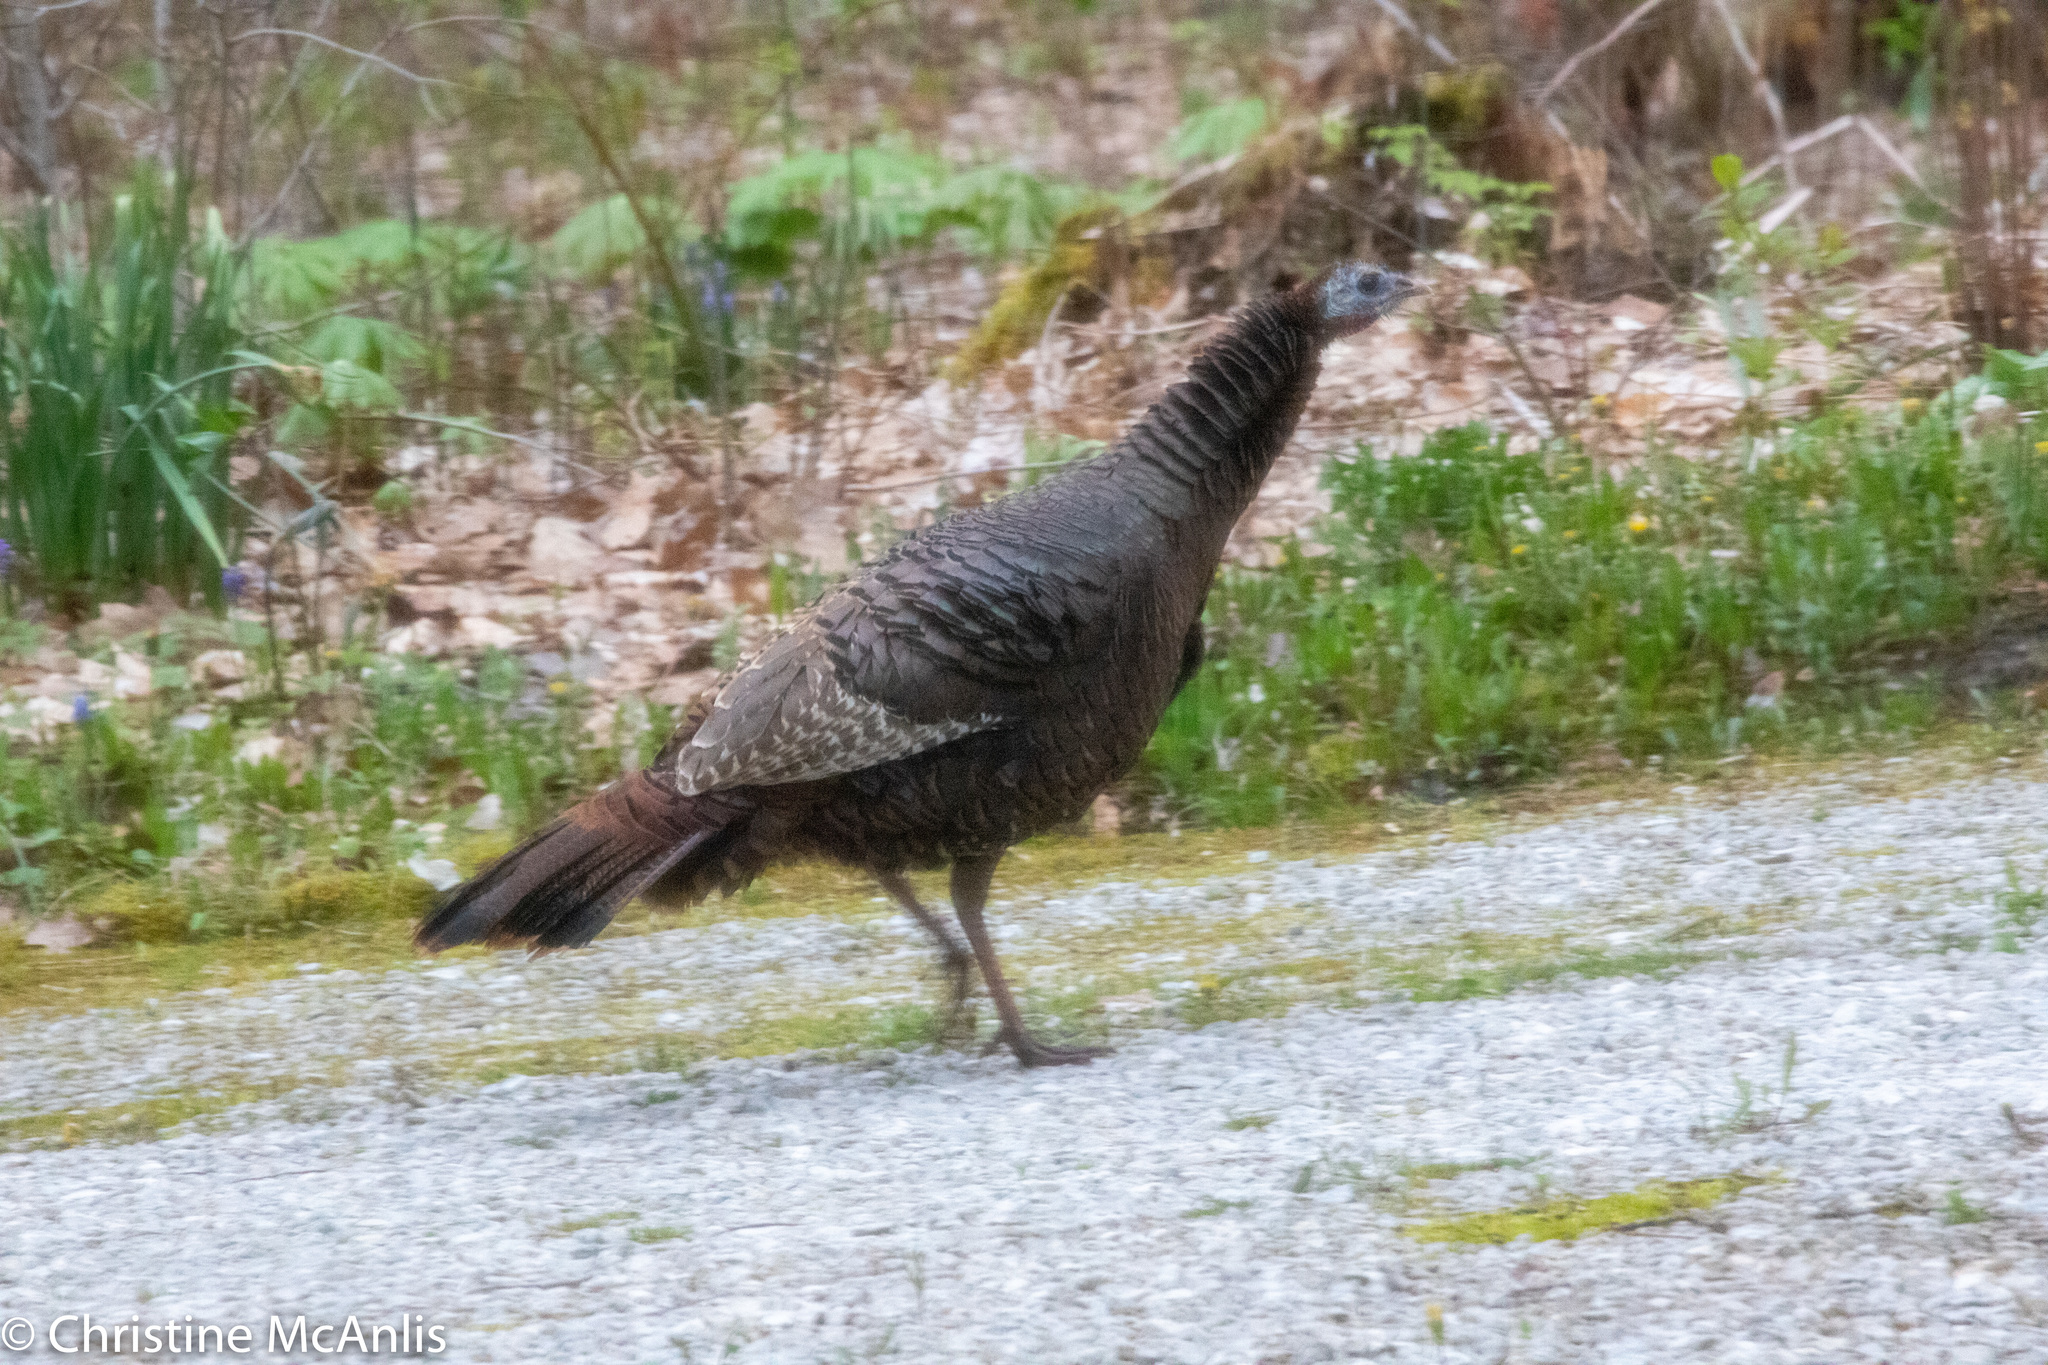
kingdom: Animalia
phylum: Chordata
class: Aves
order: Galliformes
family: Phasianidae
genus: Meleagris
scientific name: Meleagris gallopavo
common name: Wild turkey
